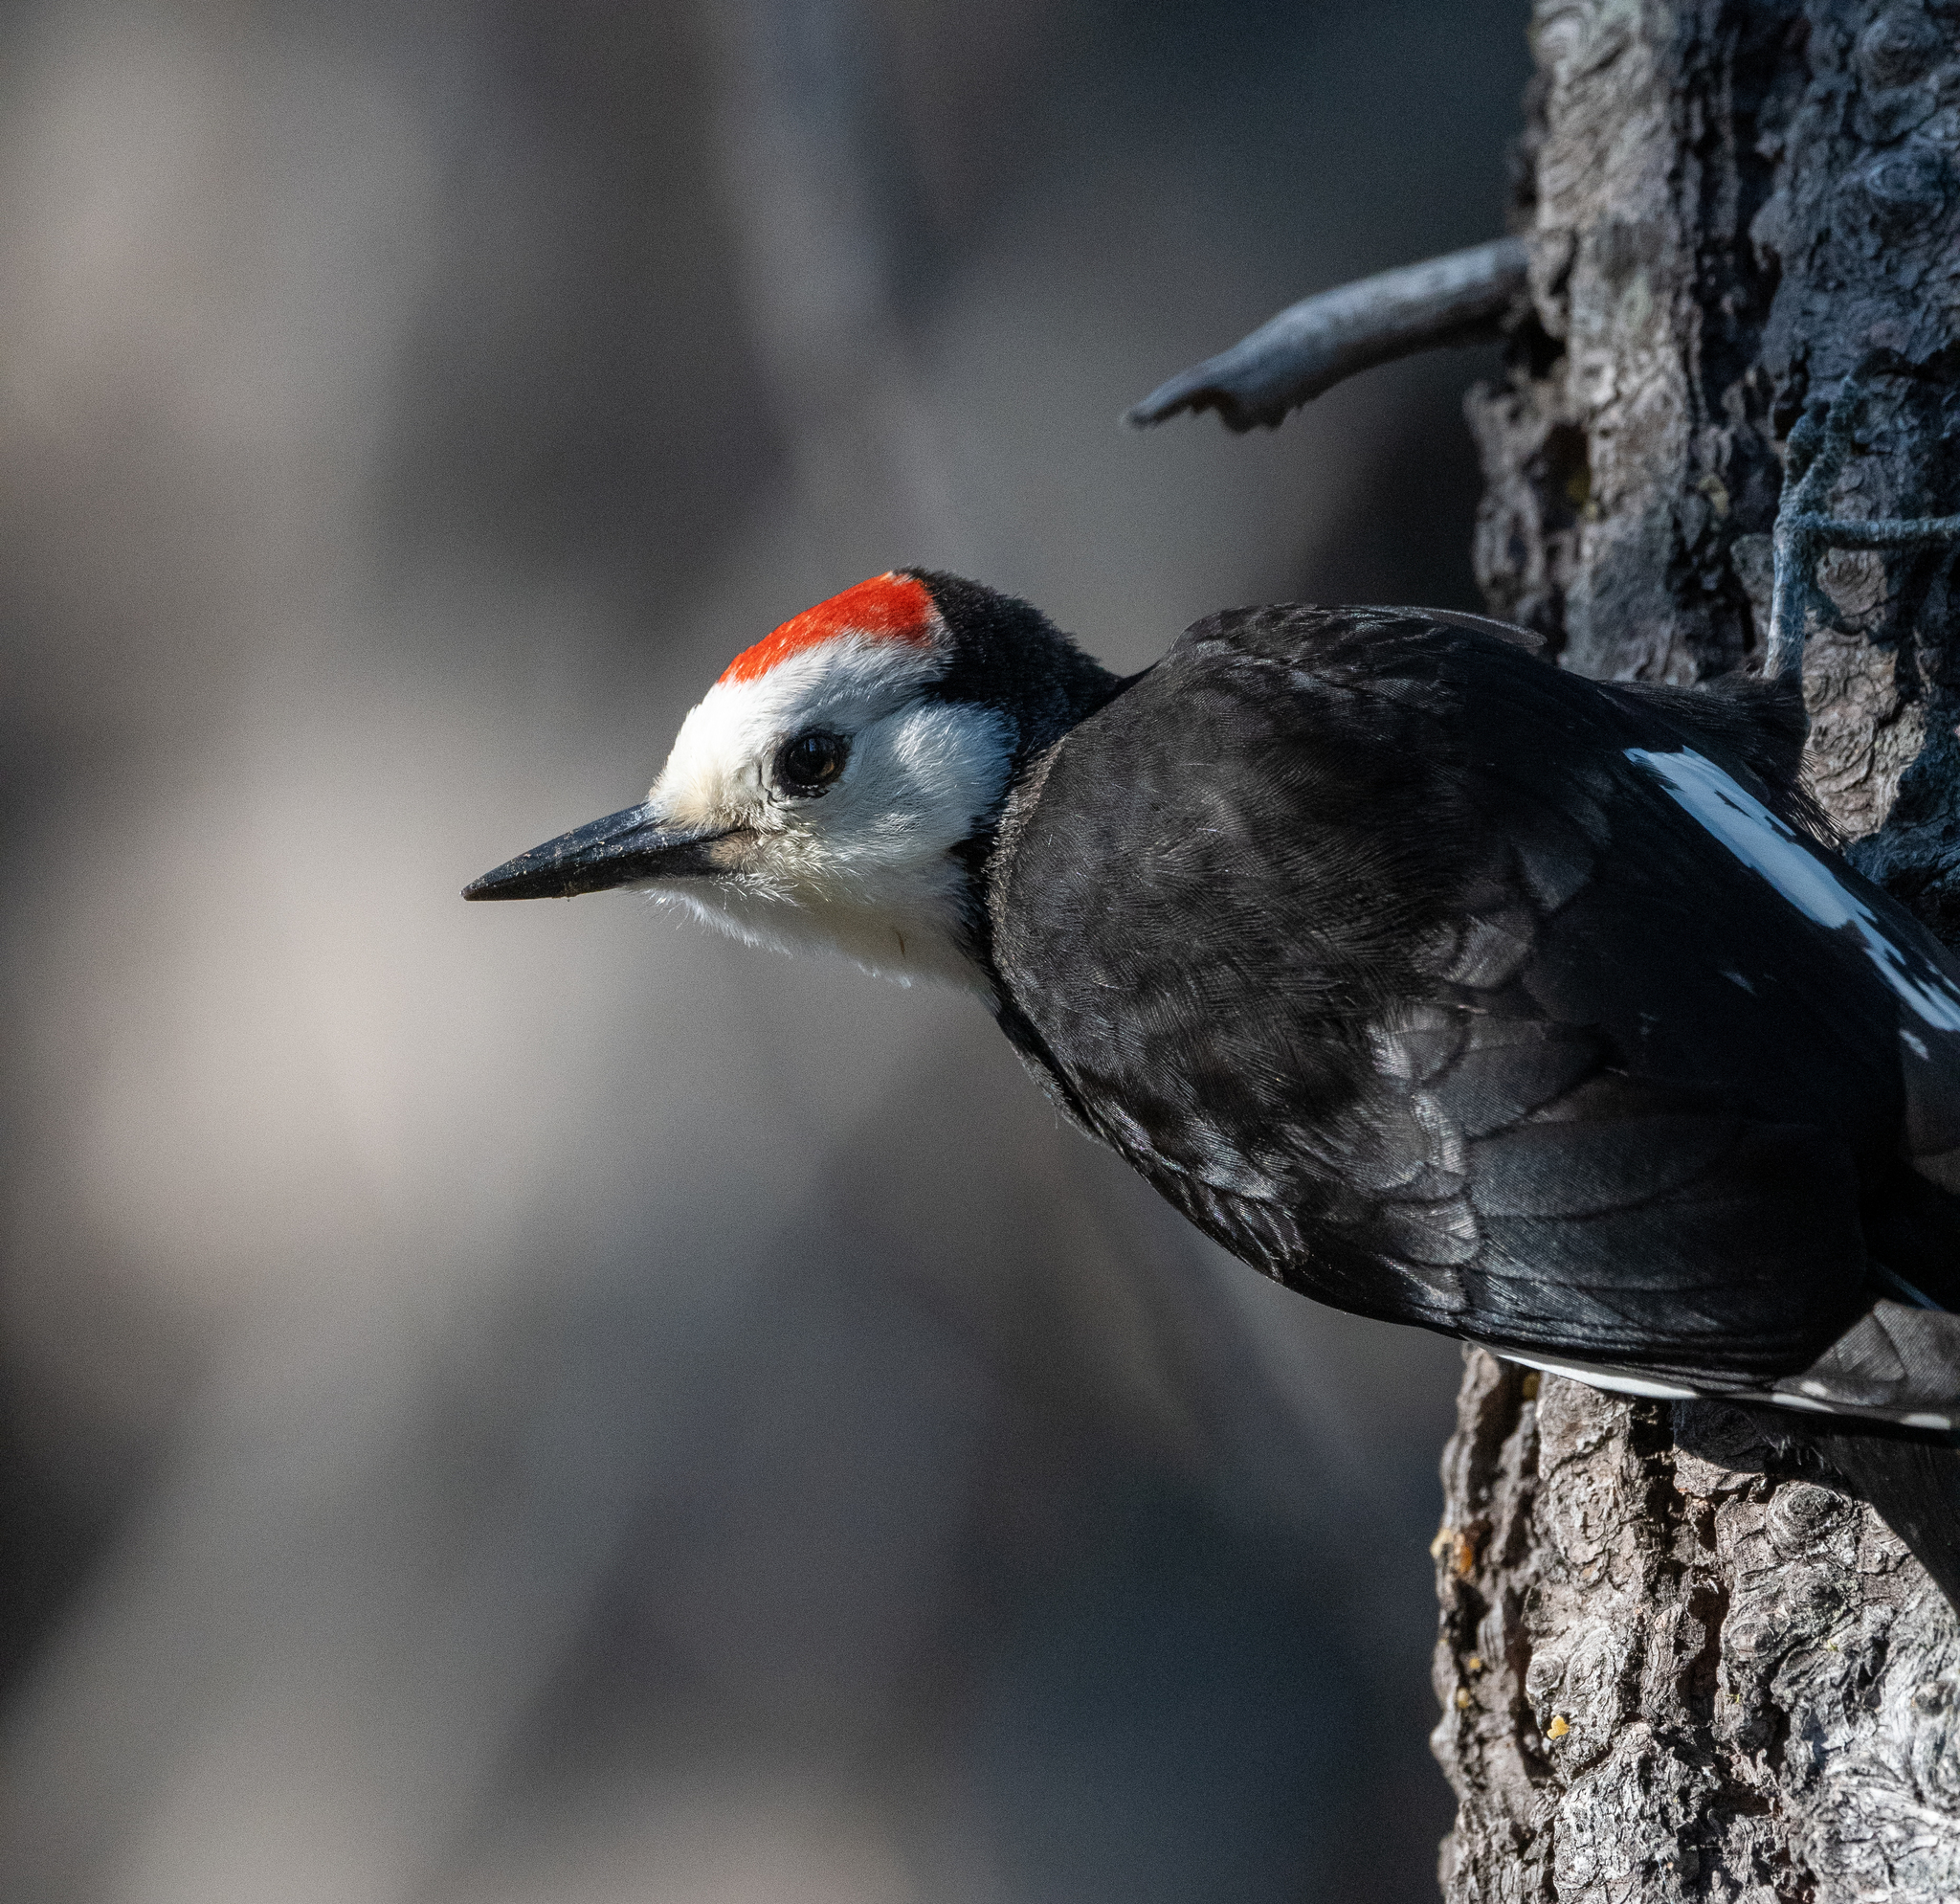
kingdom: Animalia
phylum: Chordata
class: Aves
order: Piciformes
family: Picidae
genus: Leuconotopicus
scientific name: Leuconotopicus albolarvatus
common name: White-headed woodpecker
